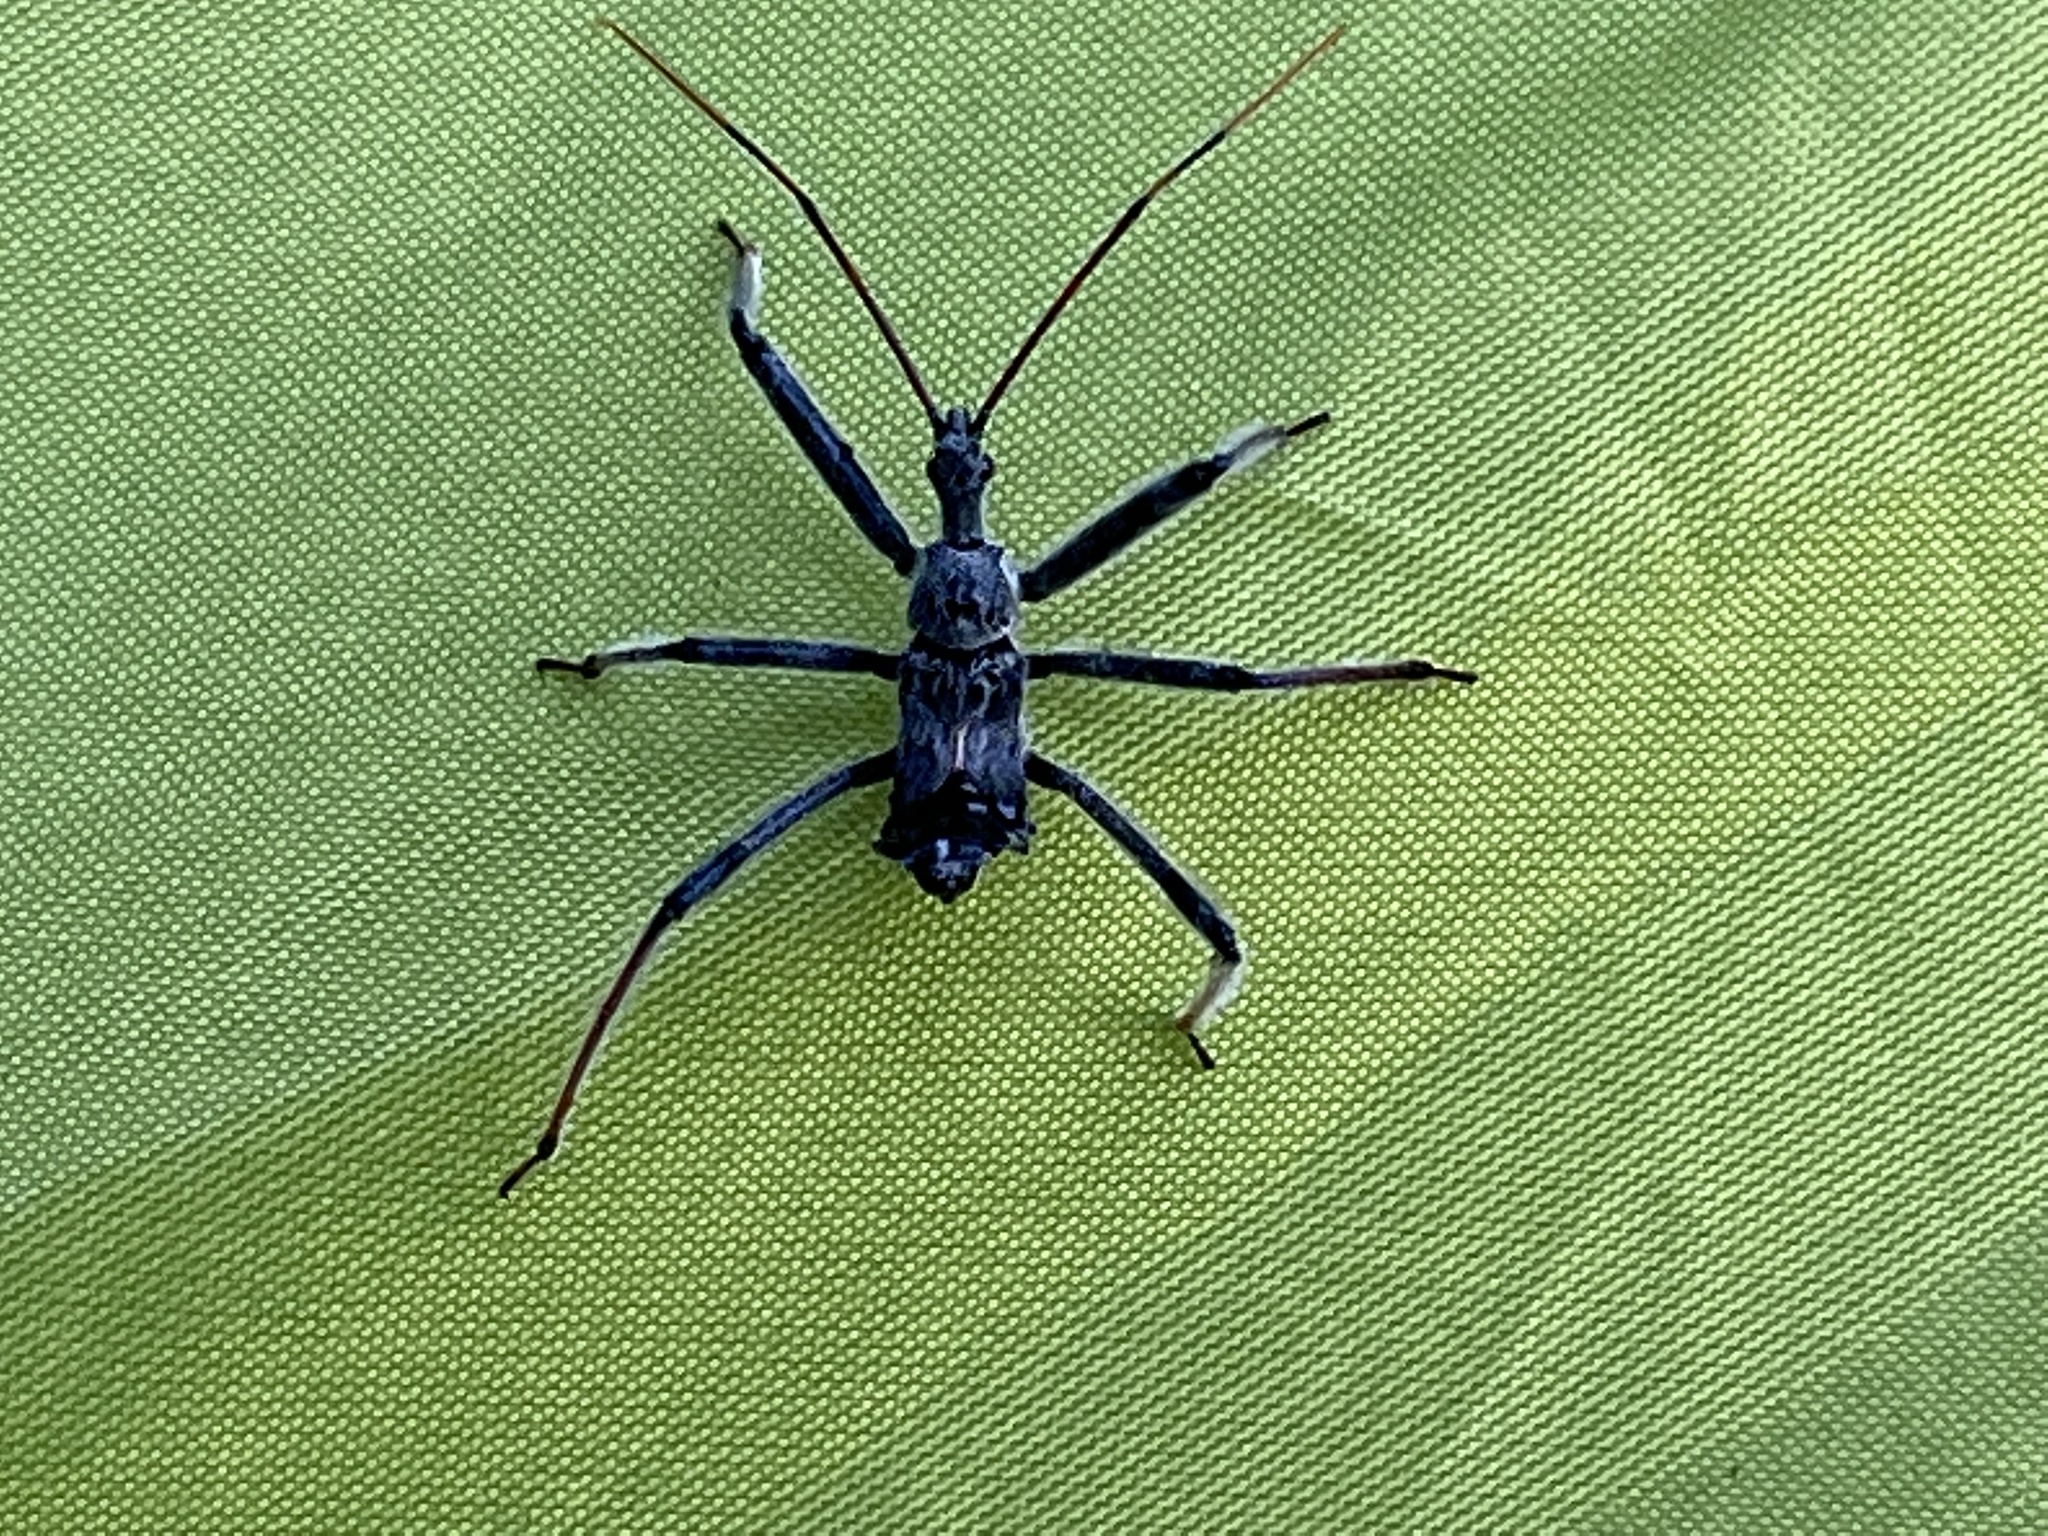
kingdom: Animalia
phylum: Arthropoda
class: Insecta
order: Hemiptera
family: Reduviidae
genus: Arilus
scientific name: Arilus cristatus
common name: North american wheel bug
